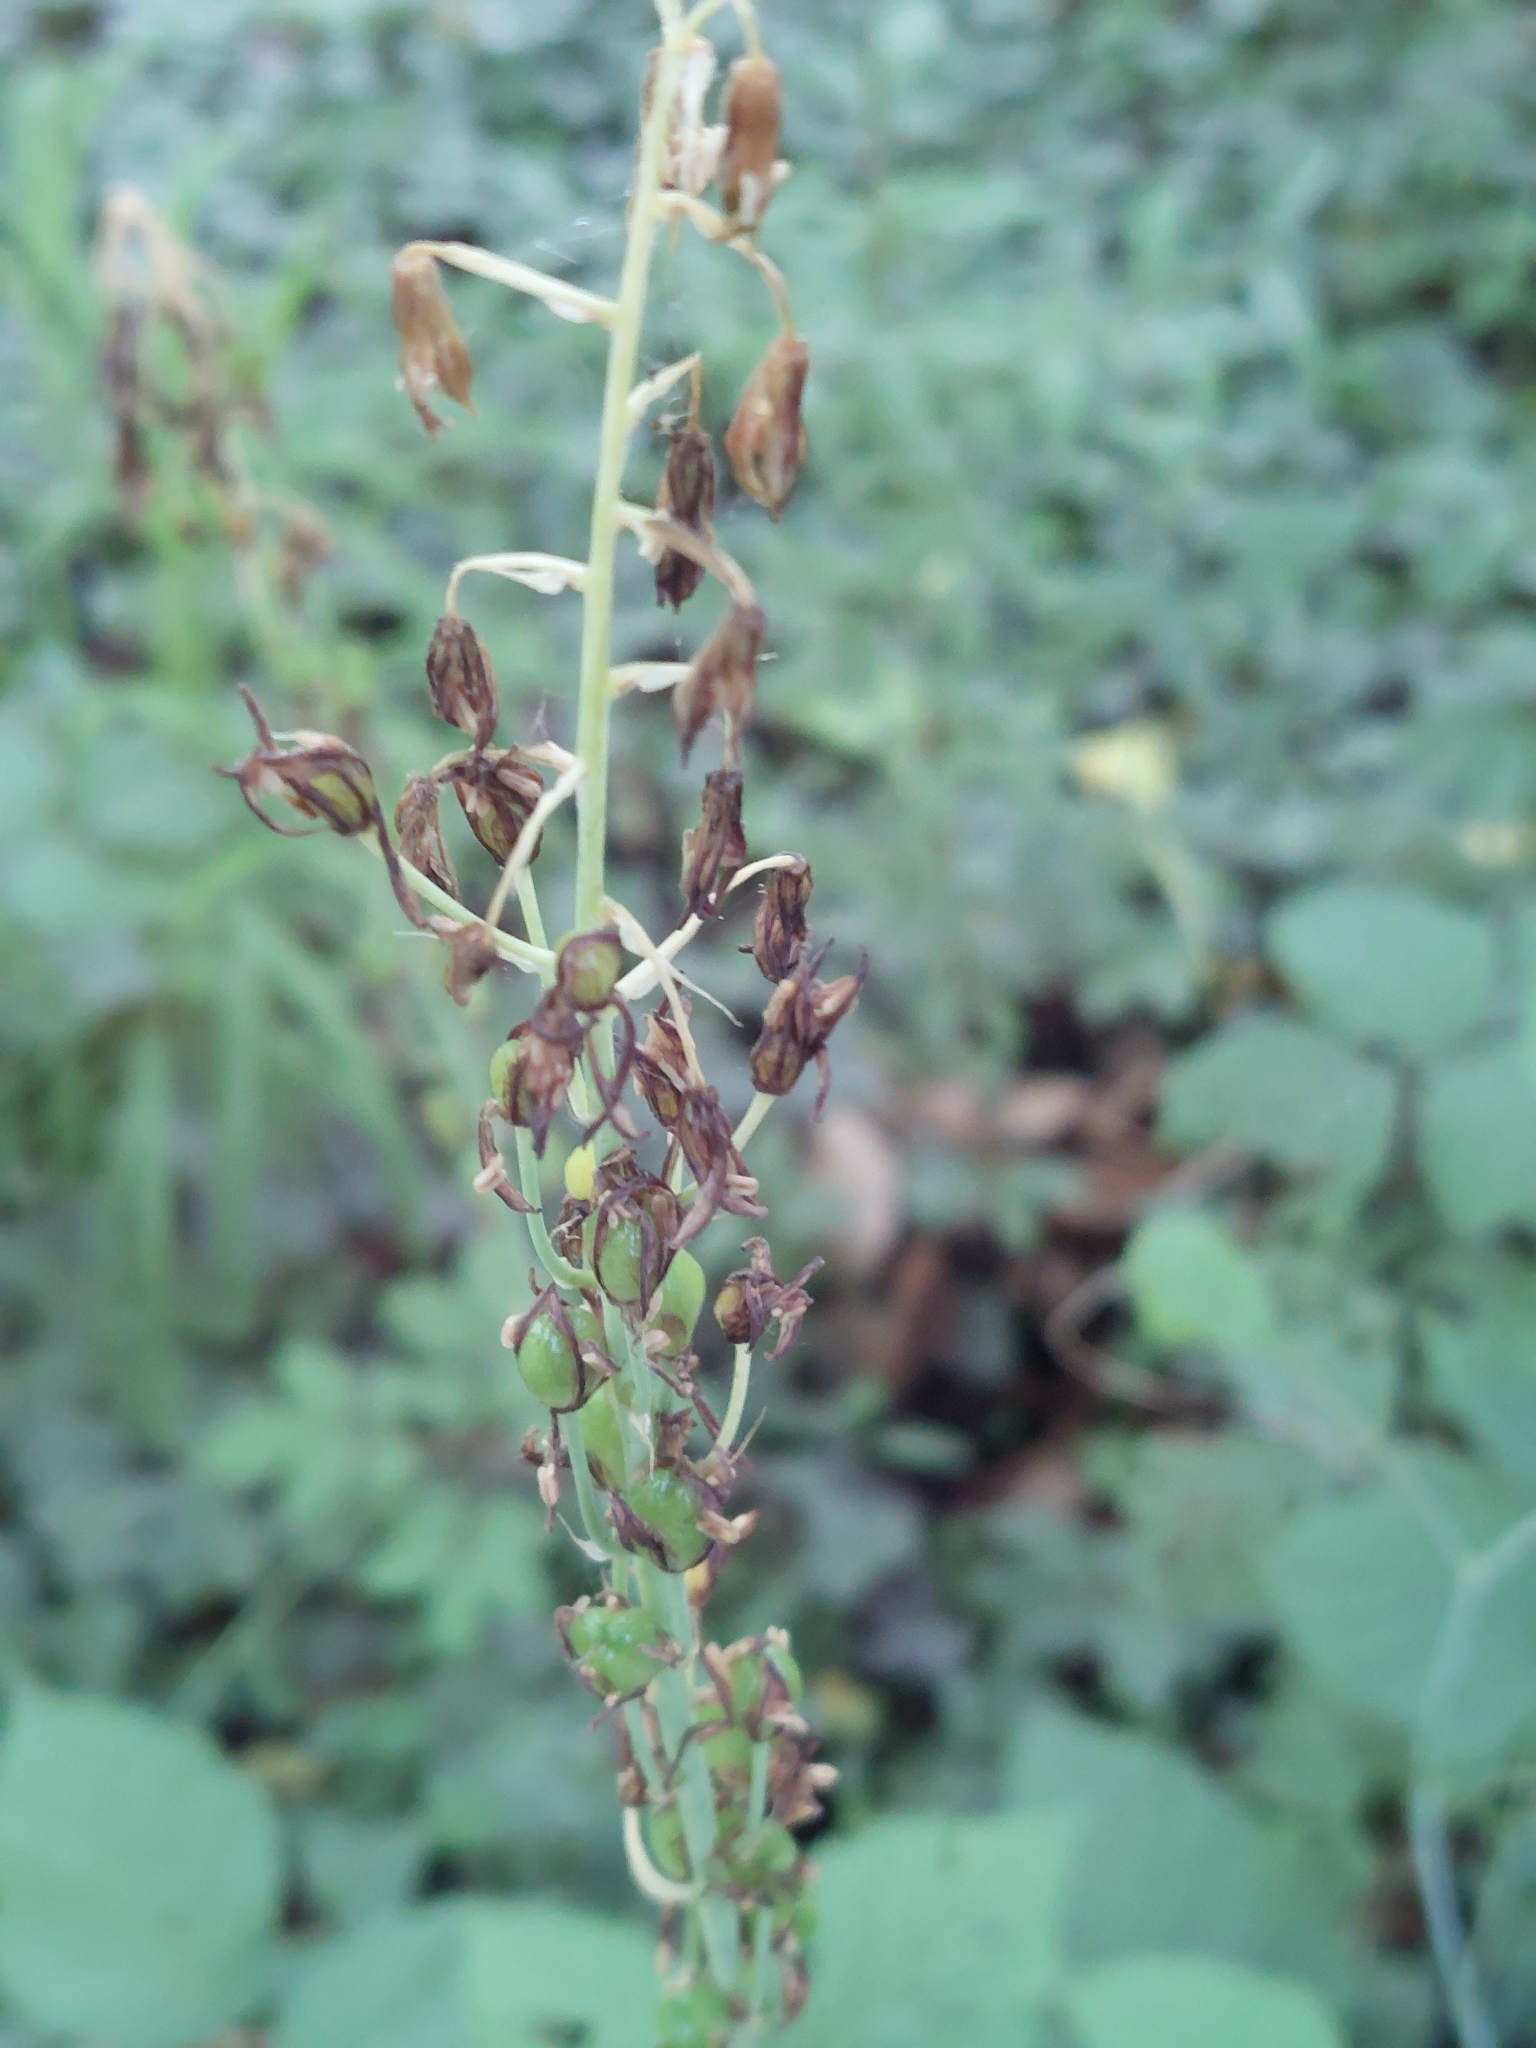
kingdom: Plantae
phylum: Tracheophyta
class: Liliopsida
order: Asparagales
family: Asparagaceae
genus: Ornithogalum
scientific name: Ornithogalum pyrenaicum
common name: Spiked star-of-bethlehem
